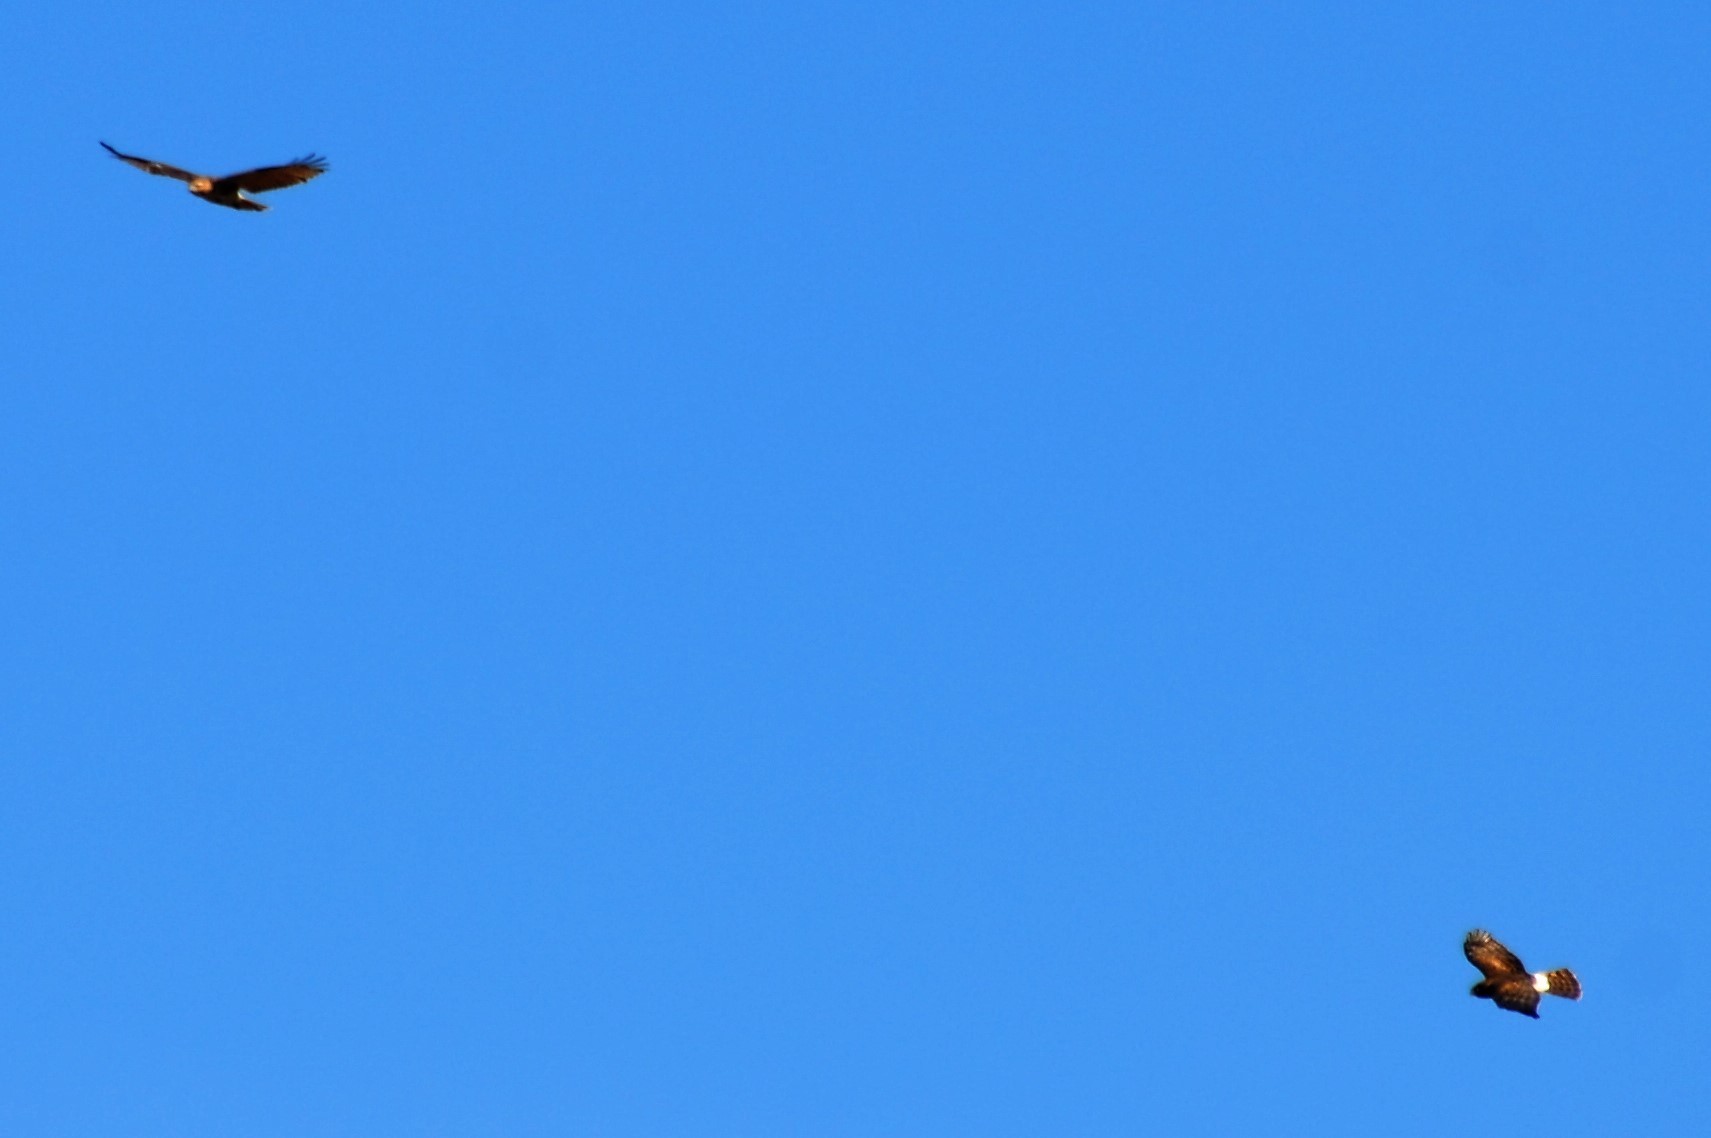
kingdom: Animalia
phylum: Chordata
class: Aves
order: Accipitriformes
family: Accipitridae
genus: Buteo
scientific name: Buteo jamaicensis
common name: Red-tailed hawk
